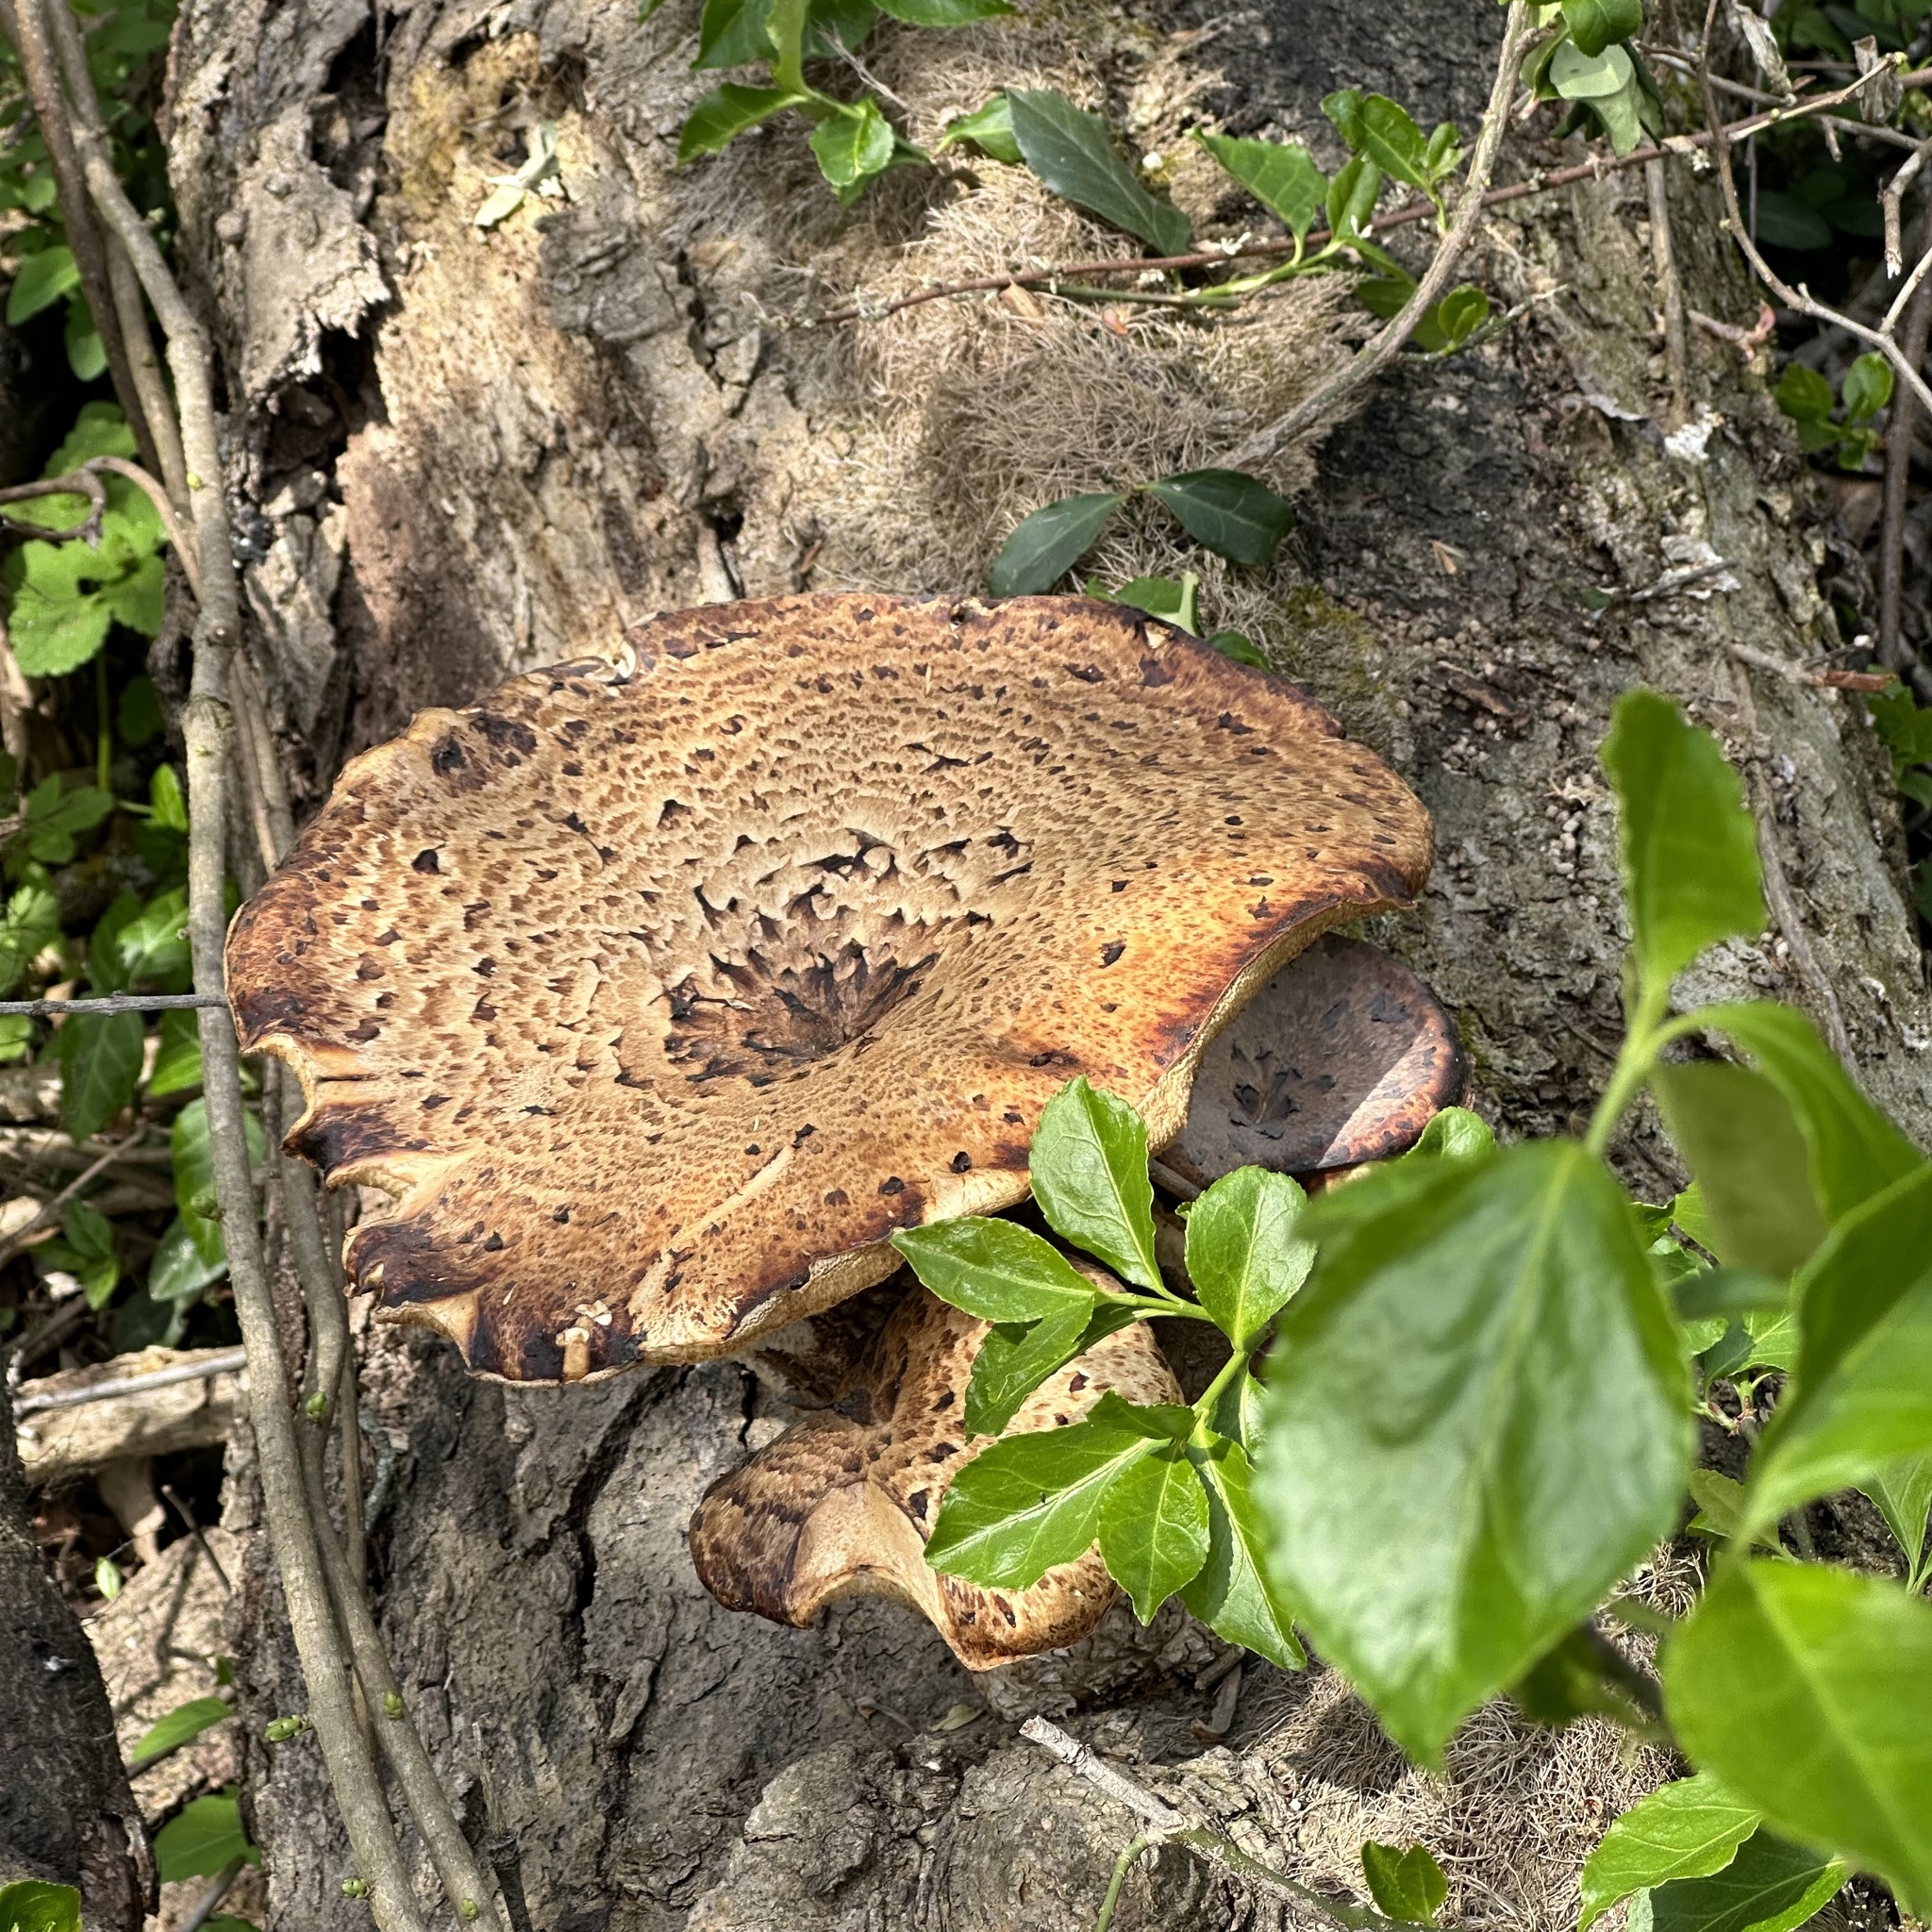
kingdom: Fungi
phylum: Basidiomycota
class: Agaricomycetes
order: Polyporales
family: Polyporaceae
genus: Cerioporus
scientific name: Cerioporus squamosus
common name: Dryad's saddle
